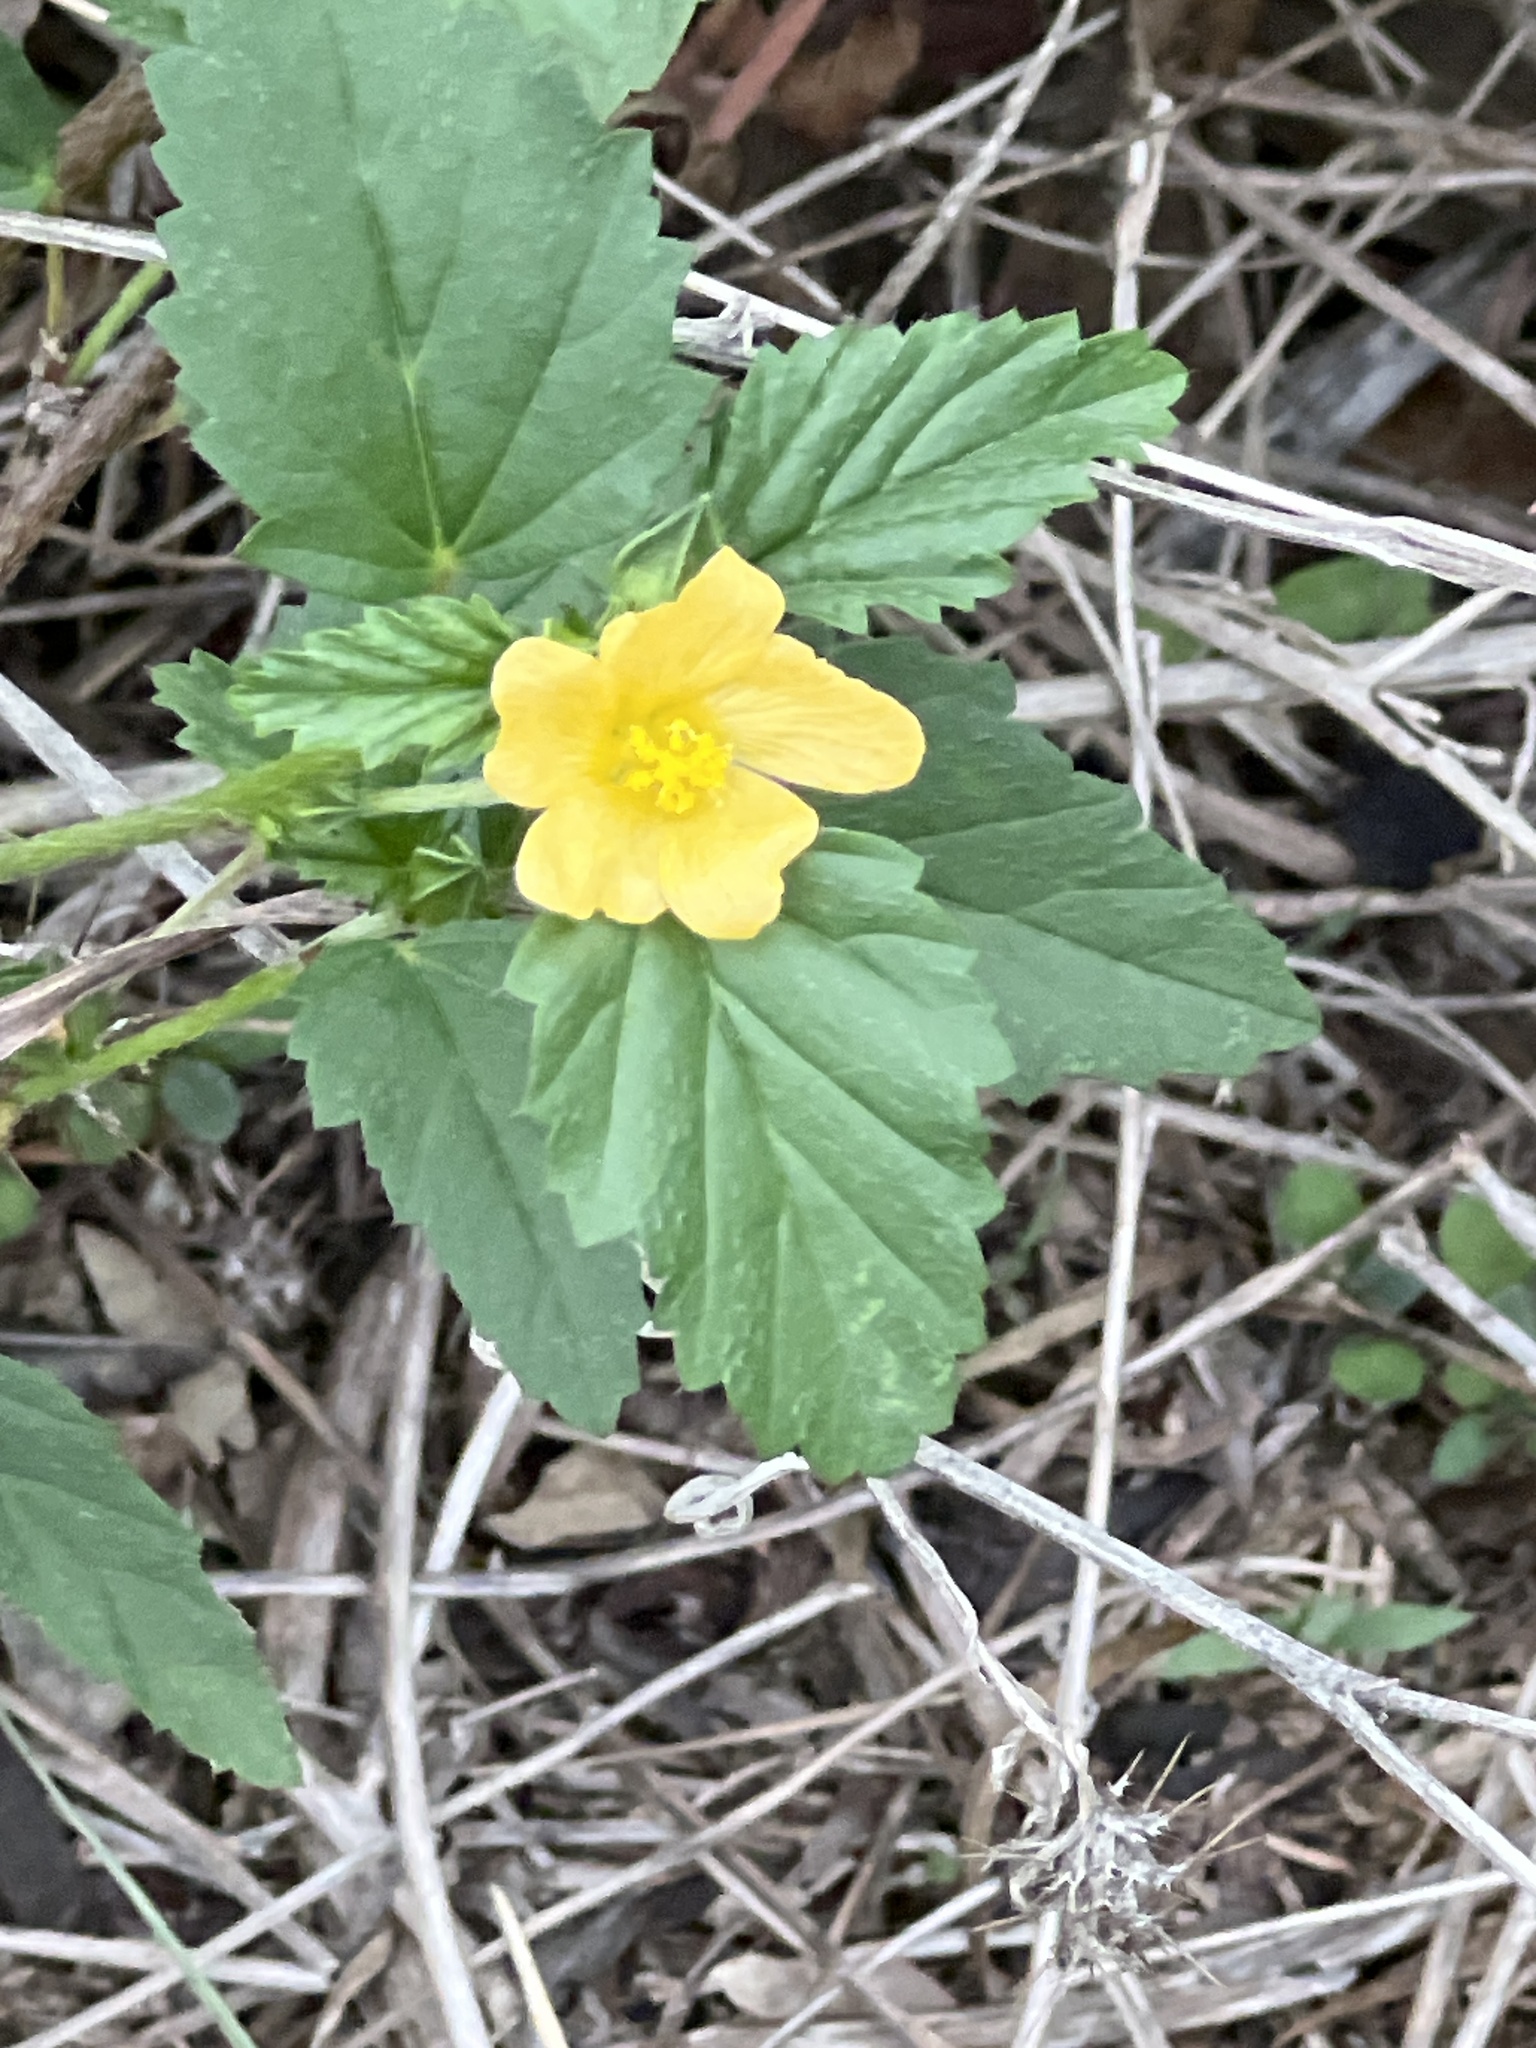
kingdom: Plantae
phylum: Tracheophyta
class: Magnoliopsida
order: Malvales
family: Malvaceae
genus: Malvastrum
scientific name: Malvastrum coromandelianum
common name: Threelobe false mallow
